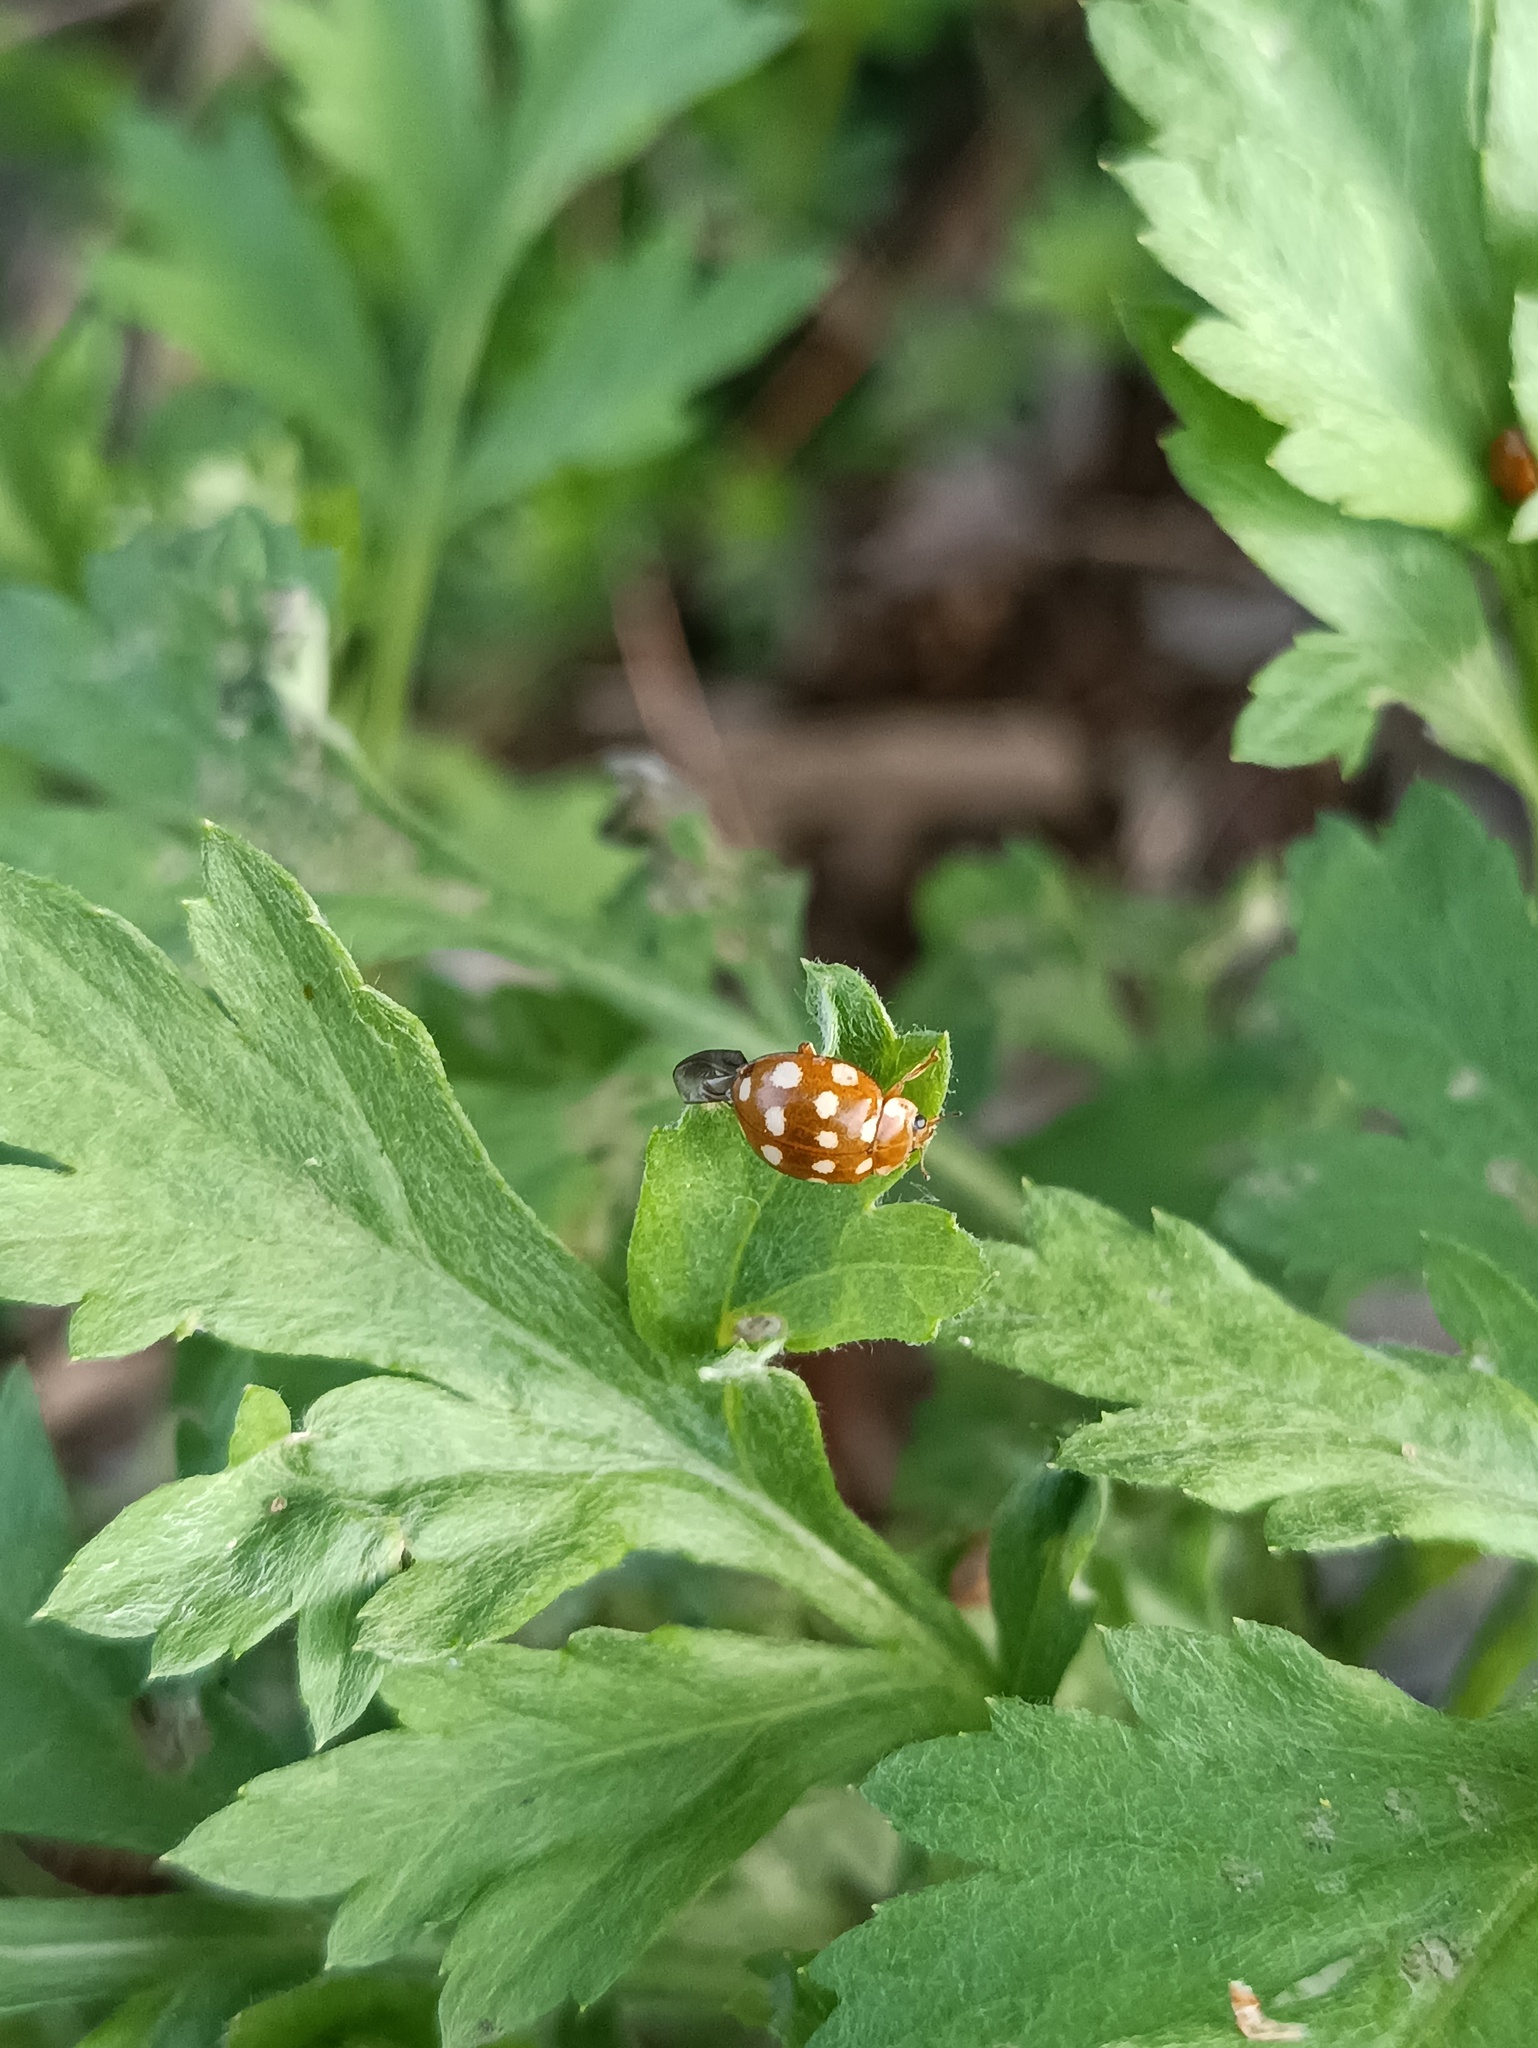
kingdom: Animalia
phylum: Arthropoda
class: Insecta
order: Coleoptera
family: Coccinellidae
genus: Calvia
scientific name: Calvia quatuordecimguttata
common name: Cream-spot ladybird
